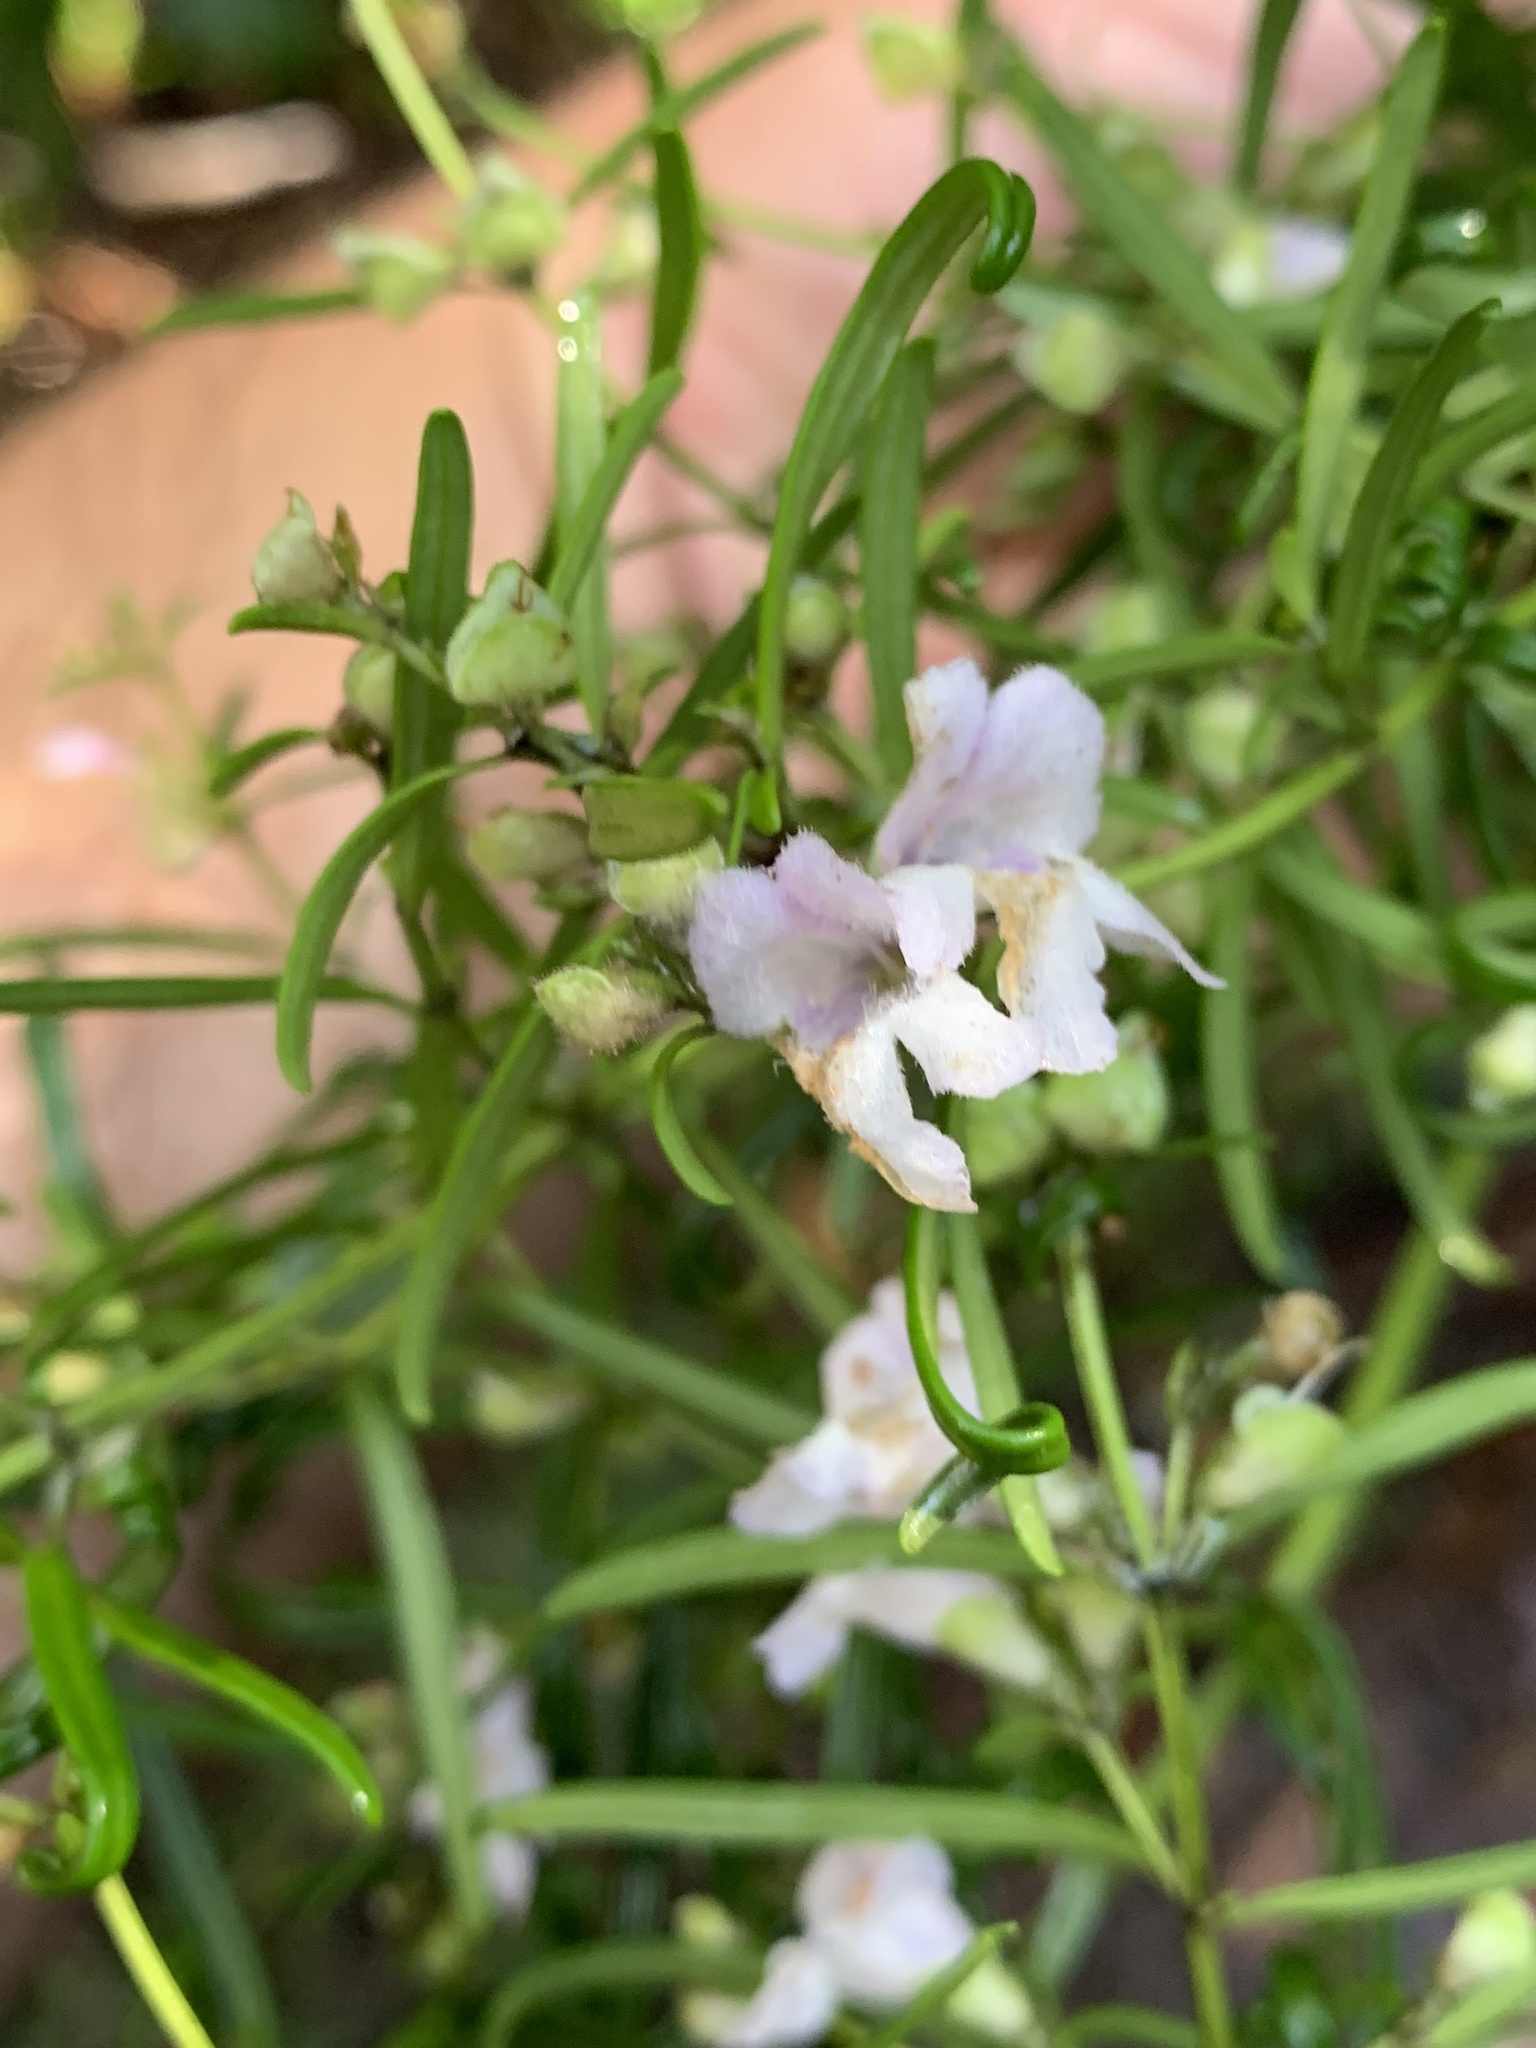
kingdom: Plantae
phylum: Tracheophyta
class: Magnoliopsida
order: Lamiales
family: Lamiaceae
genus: Prostanthera
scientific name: Prostanthera linearis
